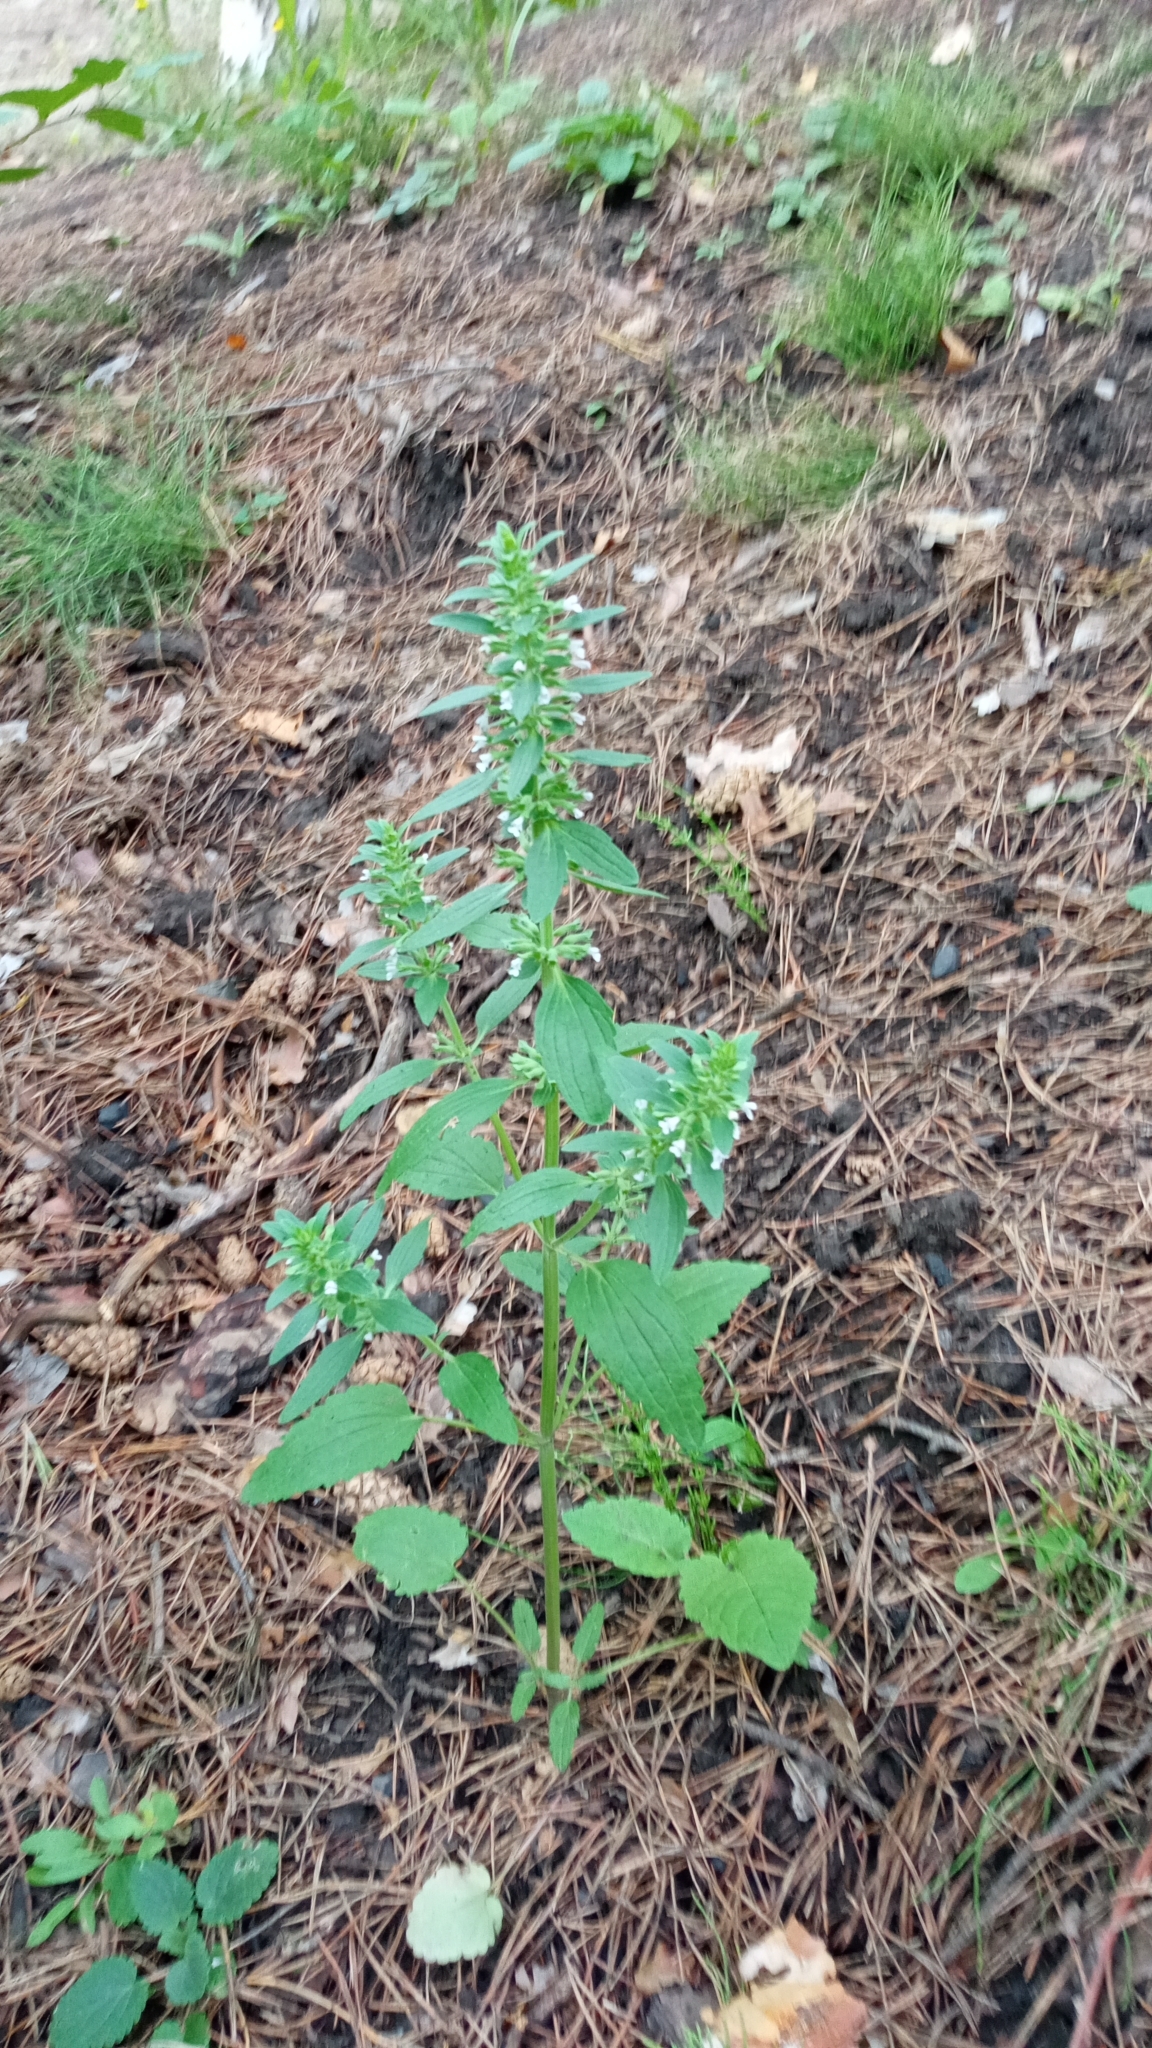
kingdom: Plantae
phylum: Tracheophyta
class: Magnoliopsida
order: Lamiales
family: Lamiaceae
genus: Dracocephalum
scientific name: Dracocephalum thymiflorum
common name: Thymeleaf dragonhead
